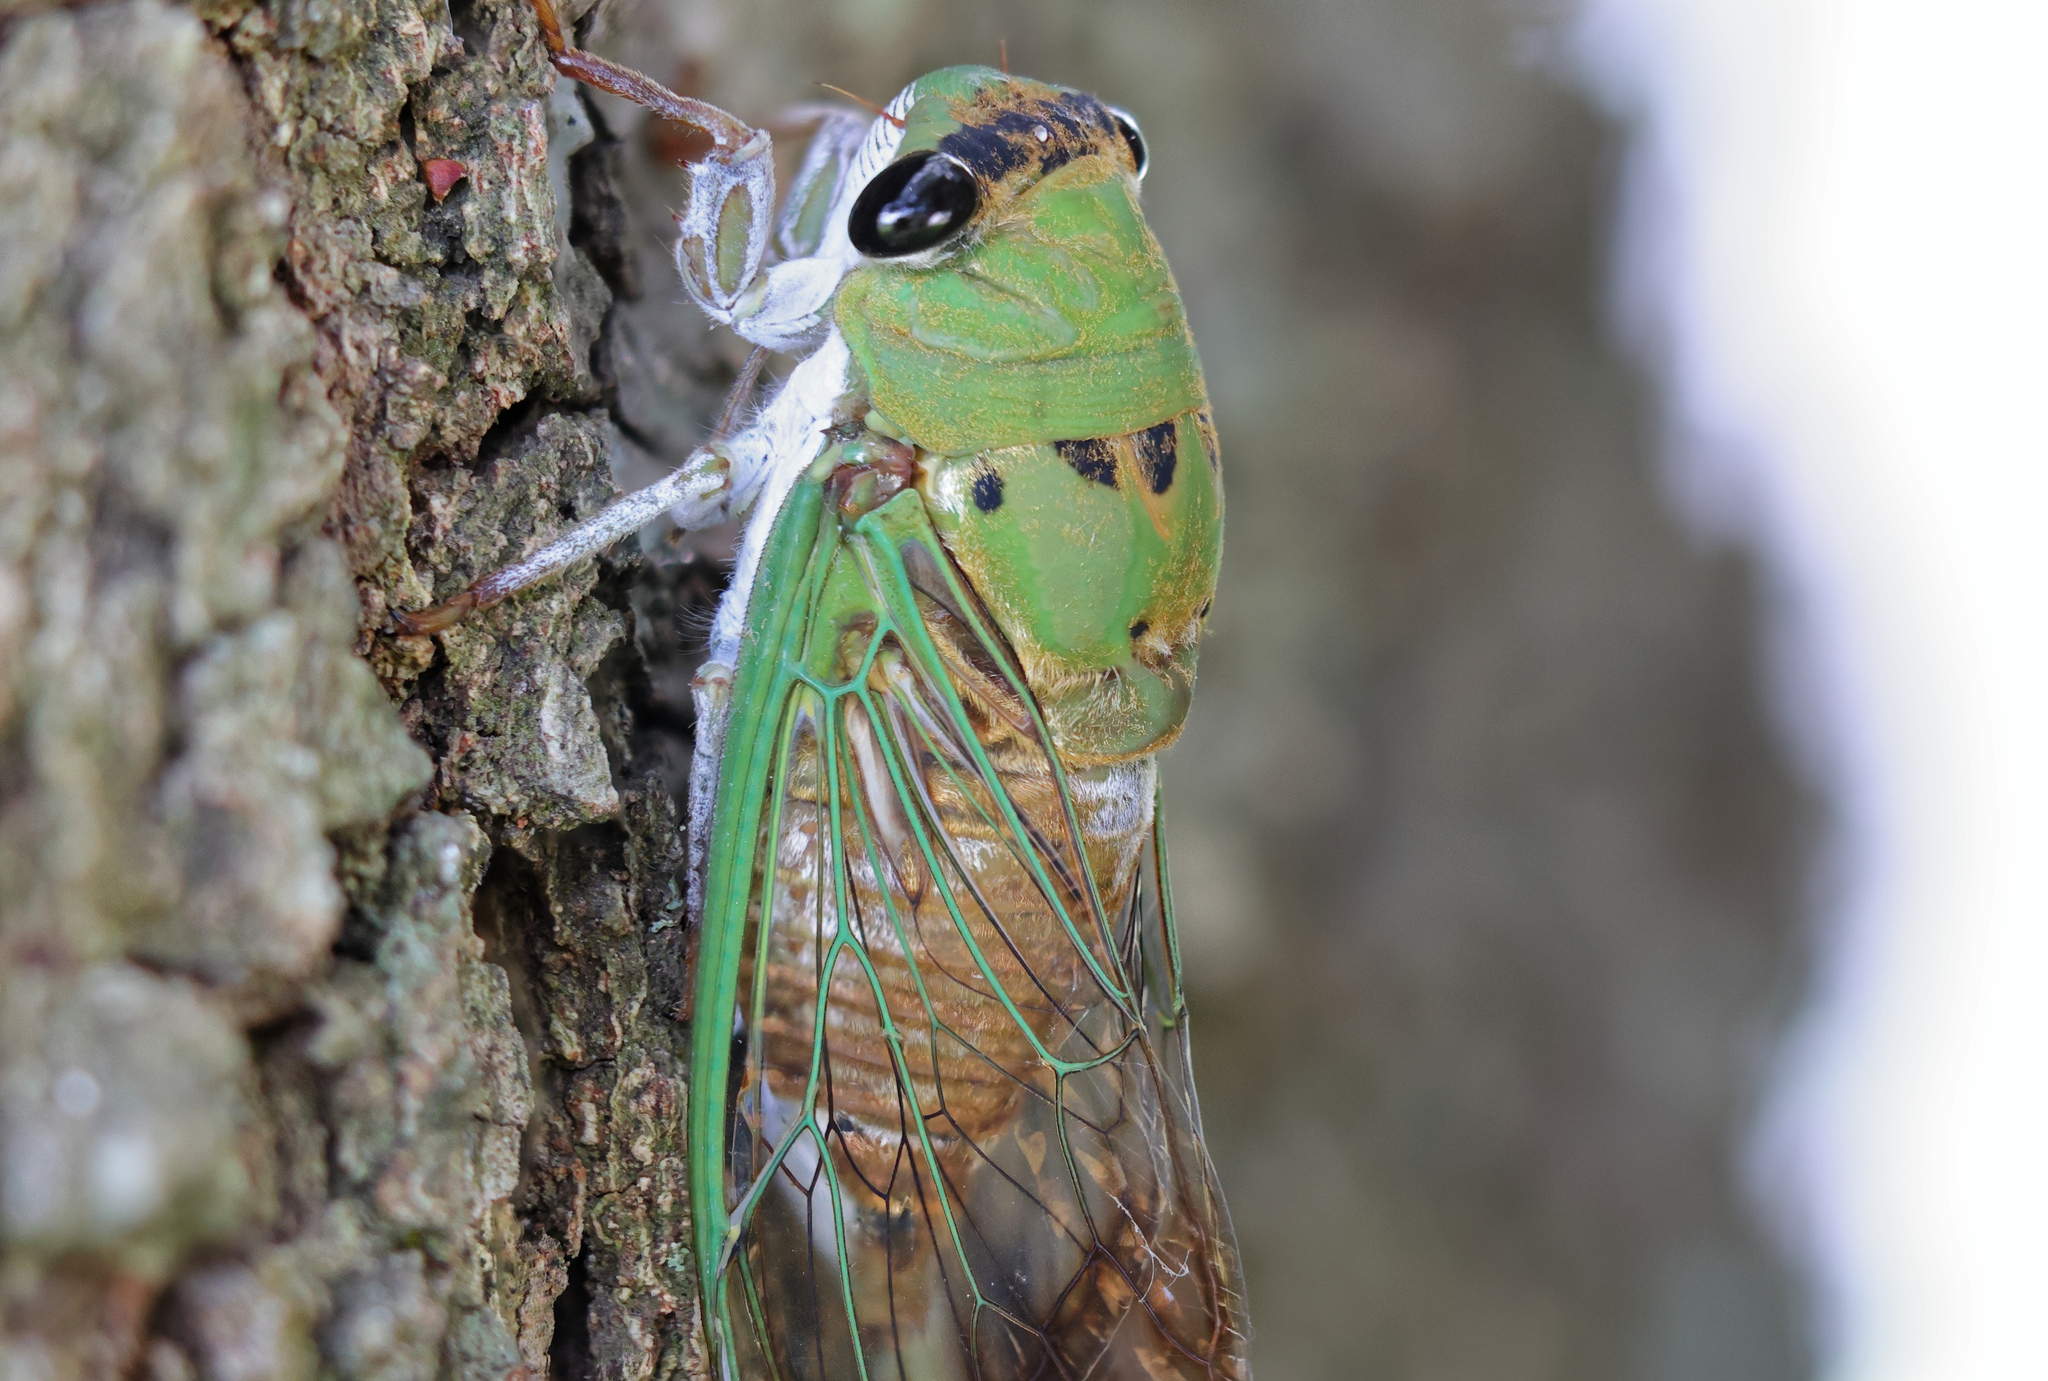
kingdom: Animalia
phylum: Arthropoda
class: Insecta
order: Hemiptera
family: Cicadidae
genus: Neotibicen
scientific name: Neotibicen superbus
